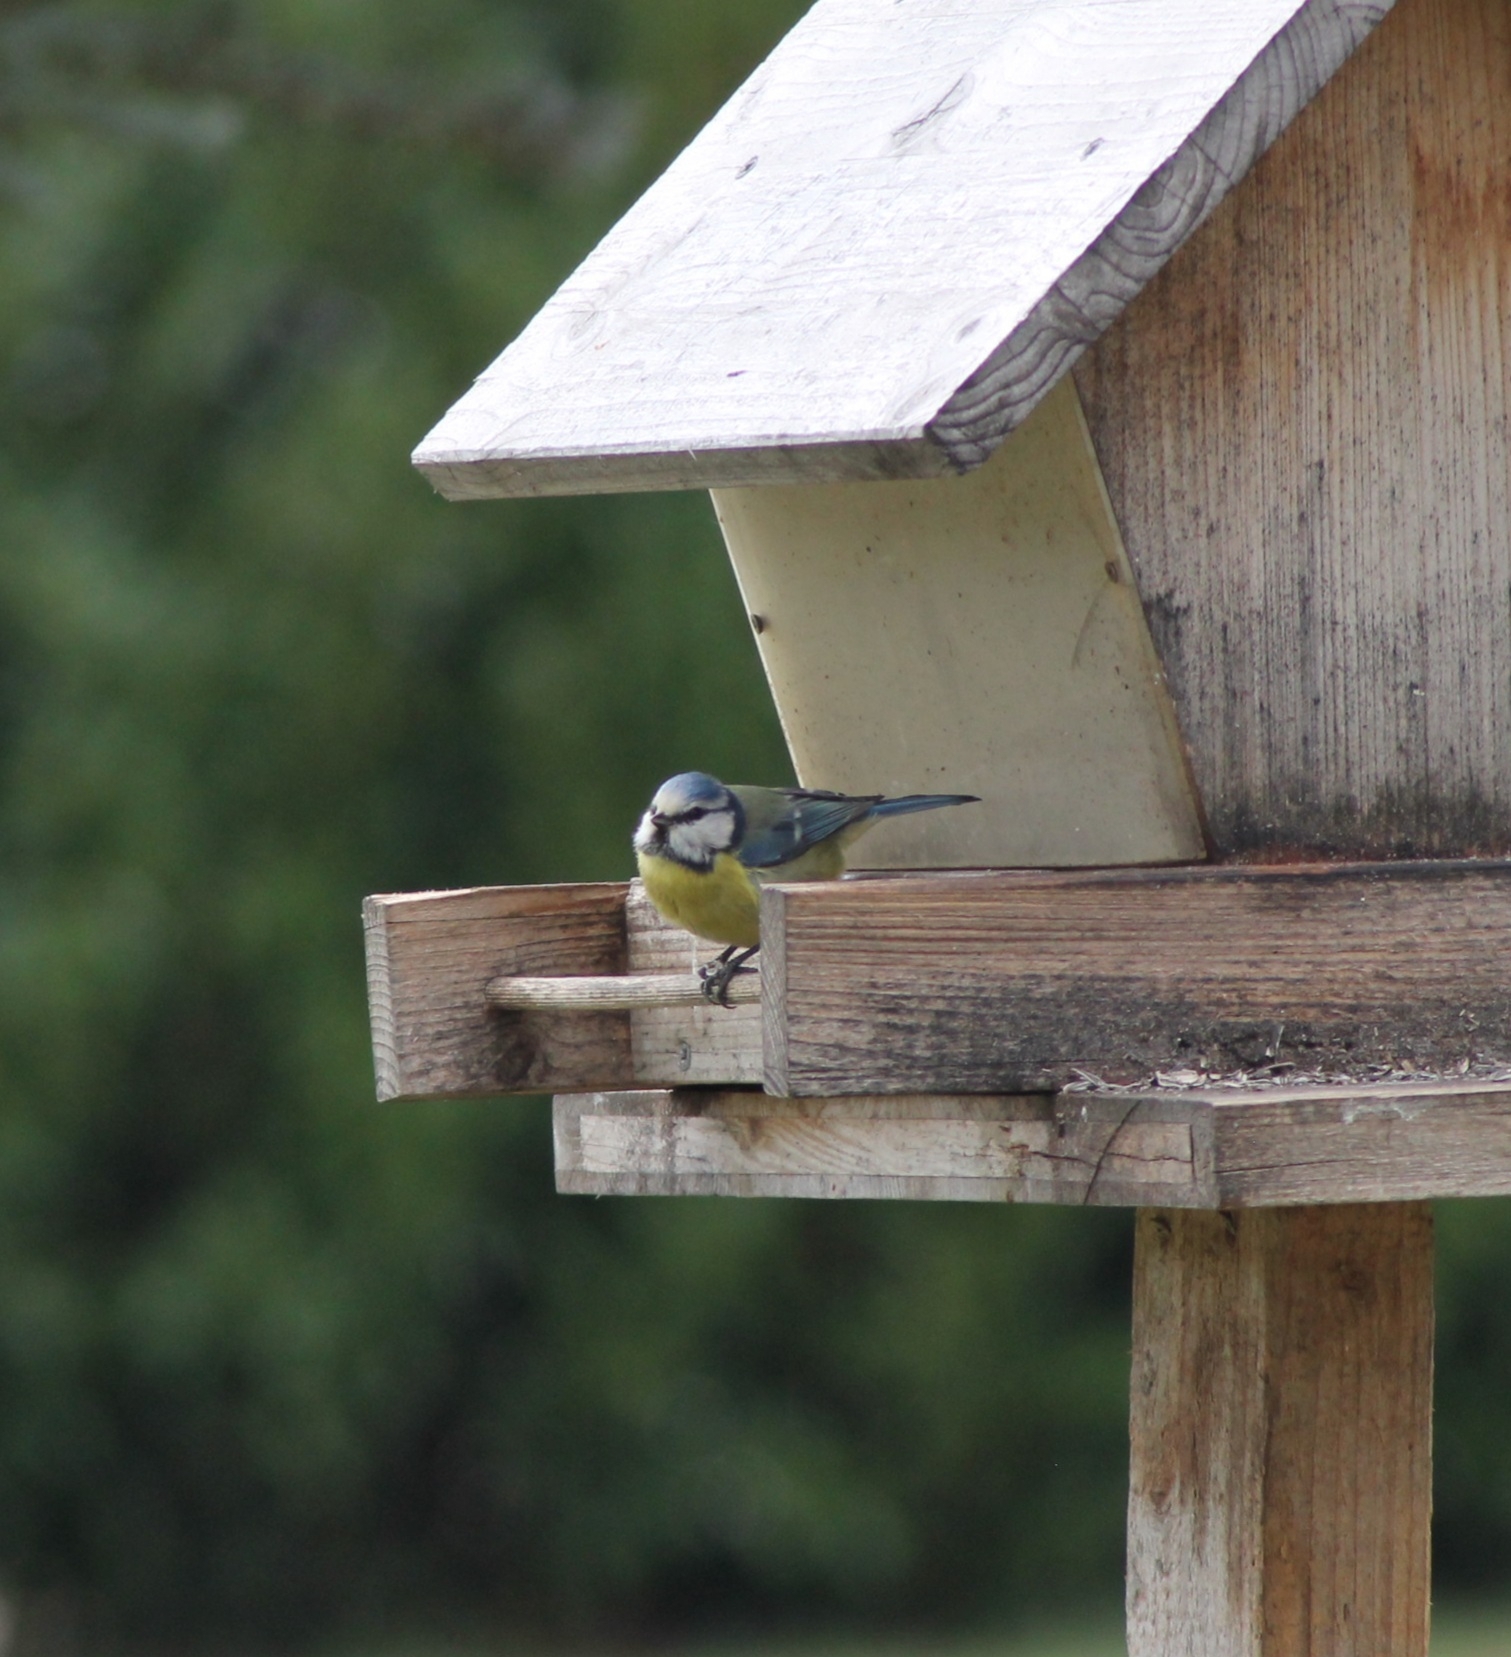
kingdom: Animalia
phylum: Chordata
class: Aves
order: Passeriformes
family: Paridae
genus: Cyanistes
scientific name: Cyanistes caeruleus
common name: Eurasian blue tit
